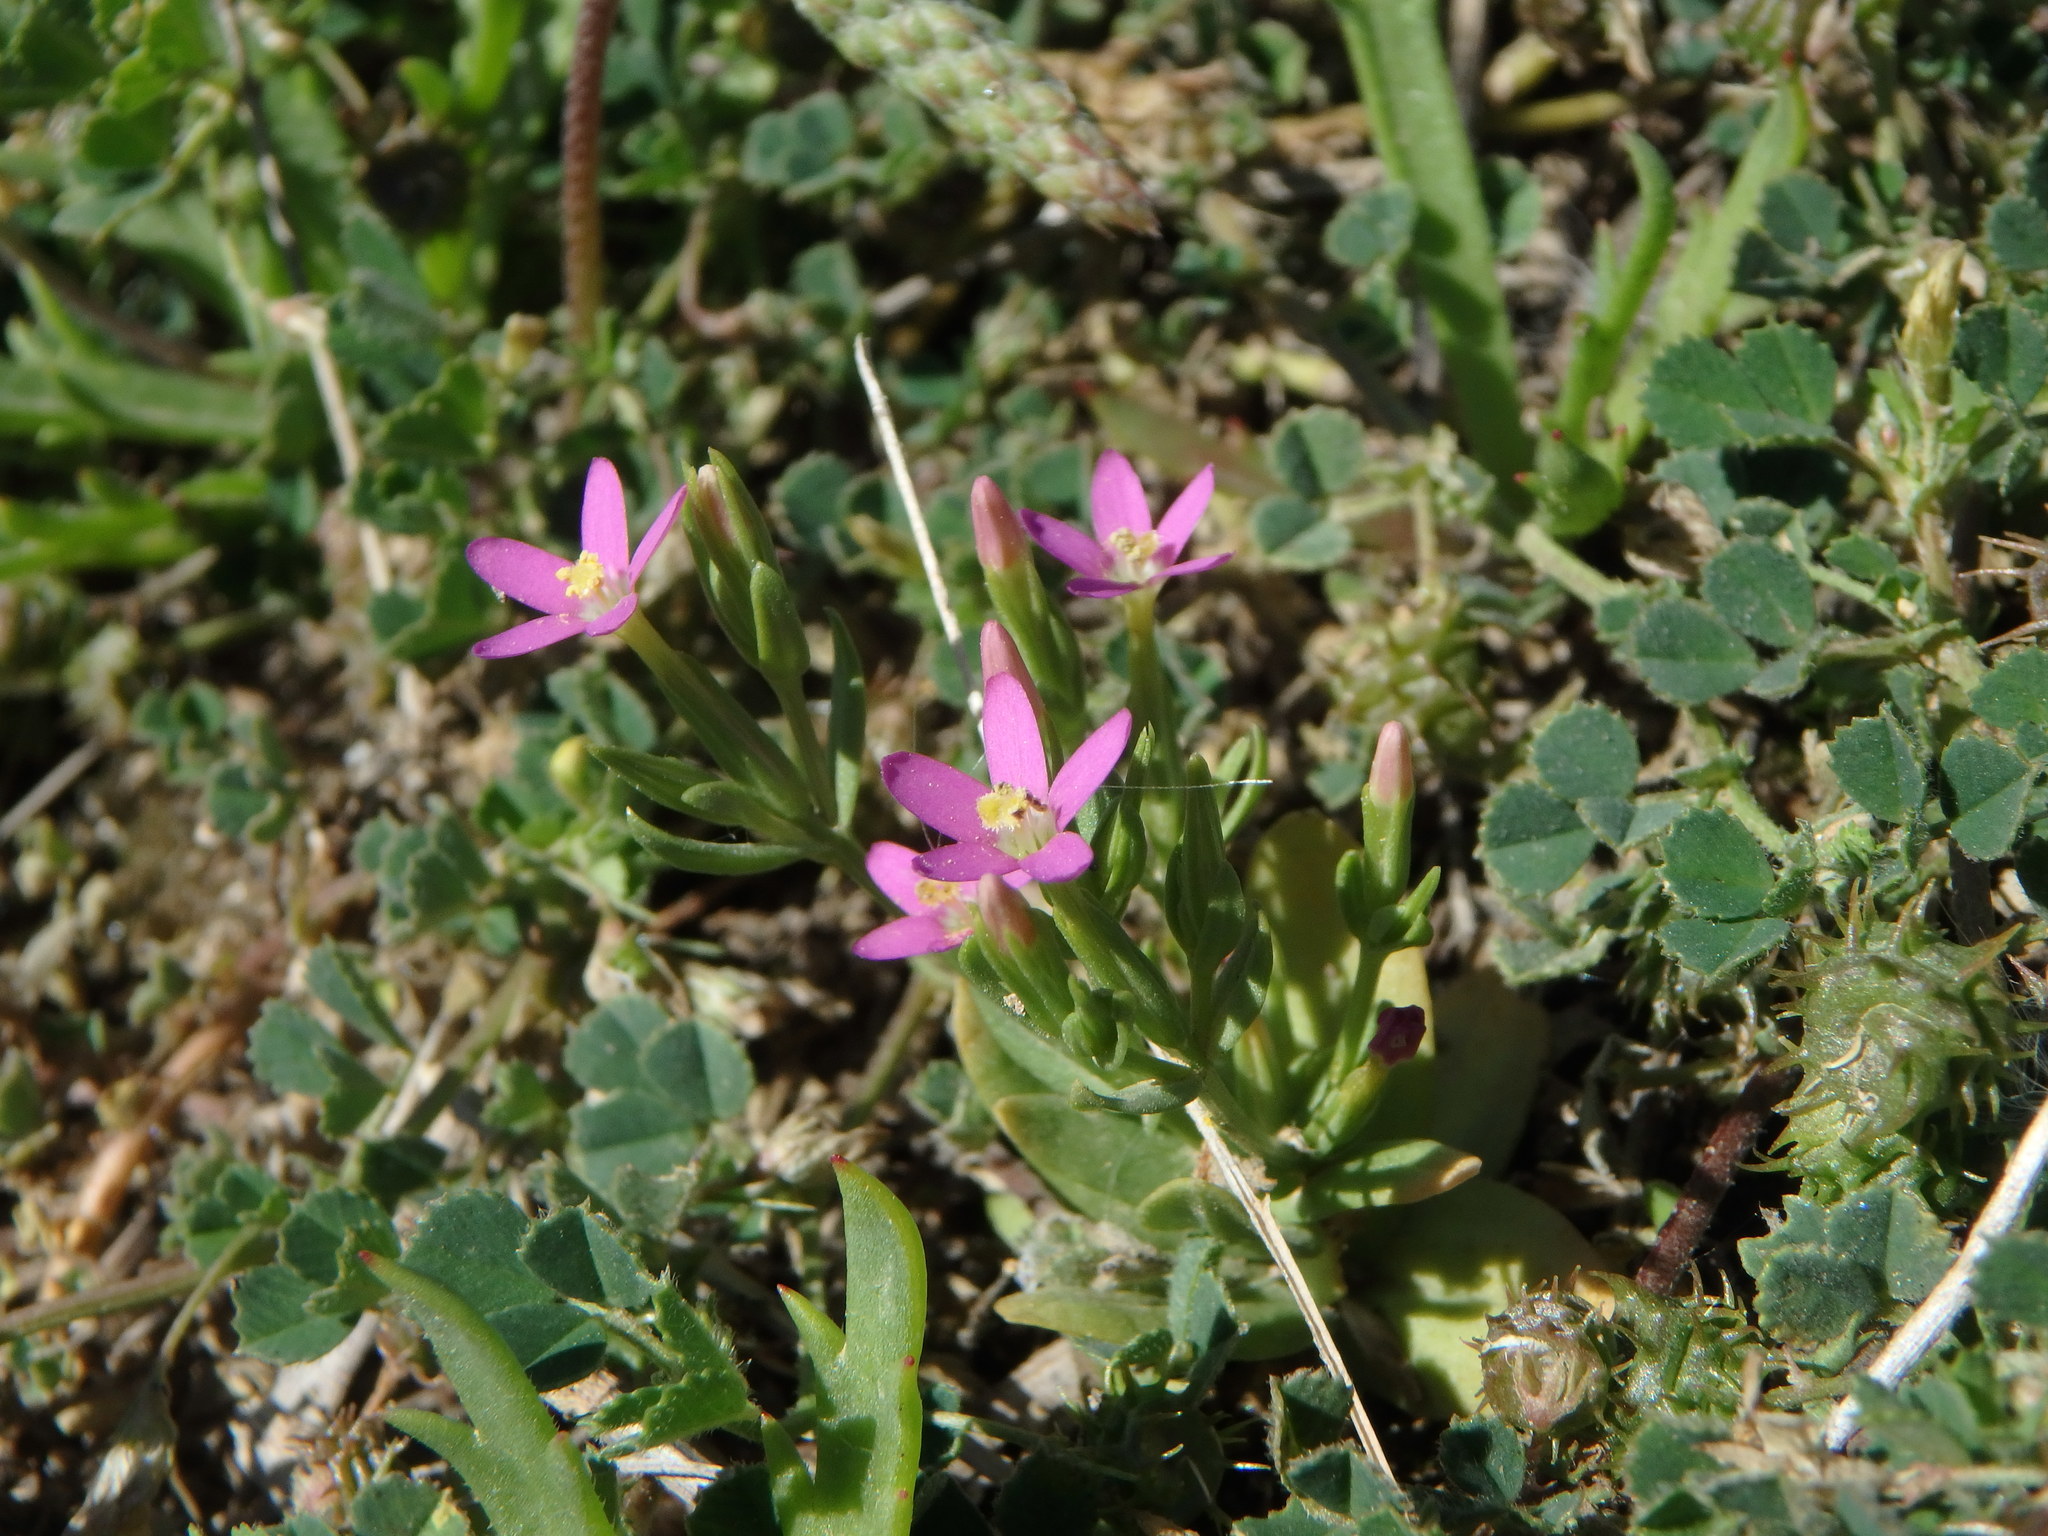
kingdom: Plantae
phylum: Tracheophyta
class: Magnoliopsida
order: Gentianales
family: Gentianaceae
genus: Centaurium
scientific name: Centaurium pulchellum
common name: Lesser centaury
